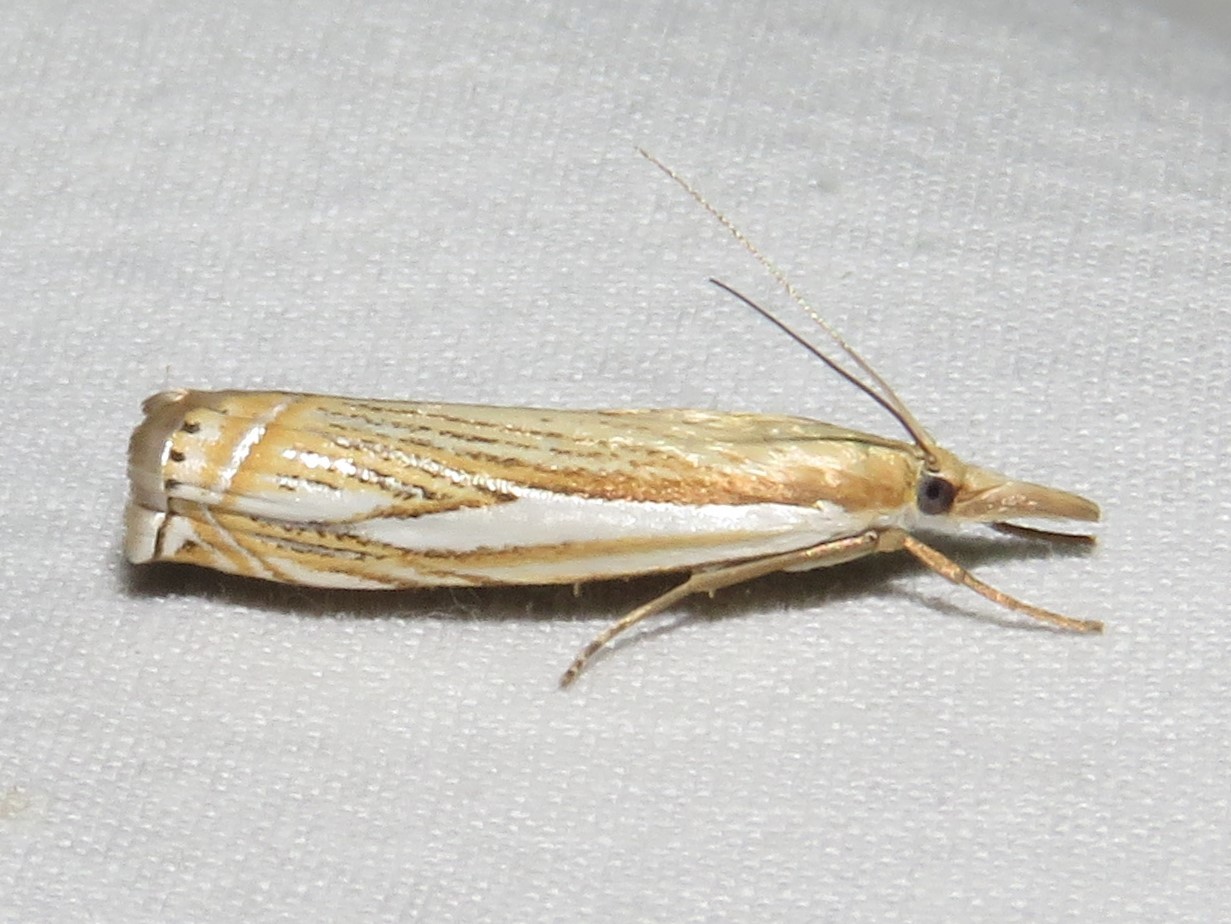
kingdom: Animalia
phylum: Arthropoda
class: Insecta
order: Lepidoptera
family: Crambidae
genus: Crambus
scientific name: Crambus saltuellus
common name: Pasture grass-veneer
